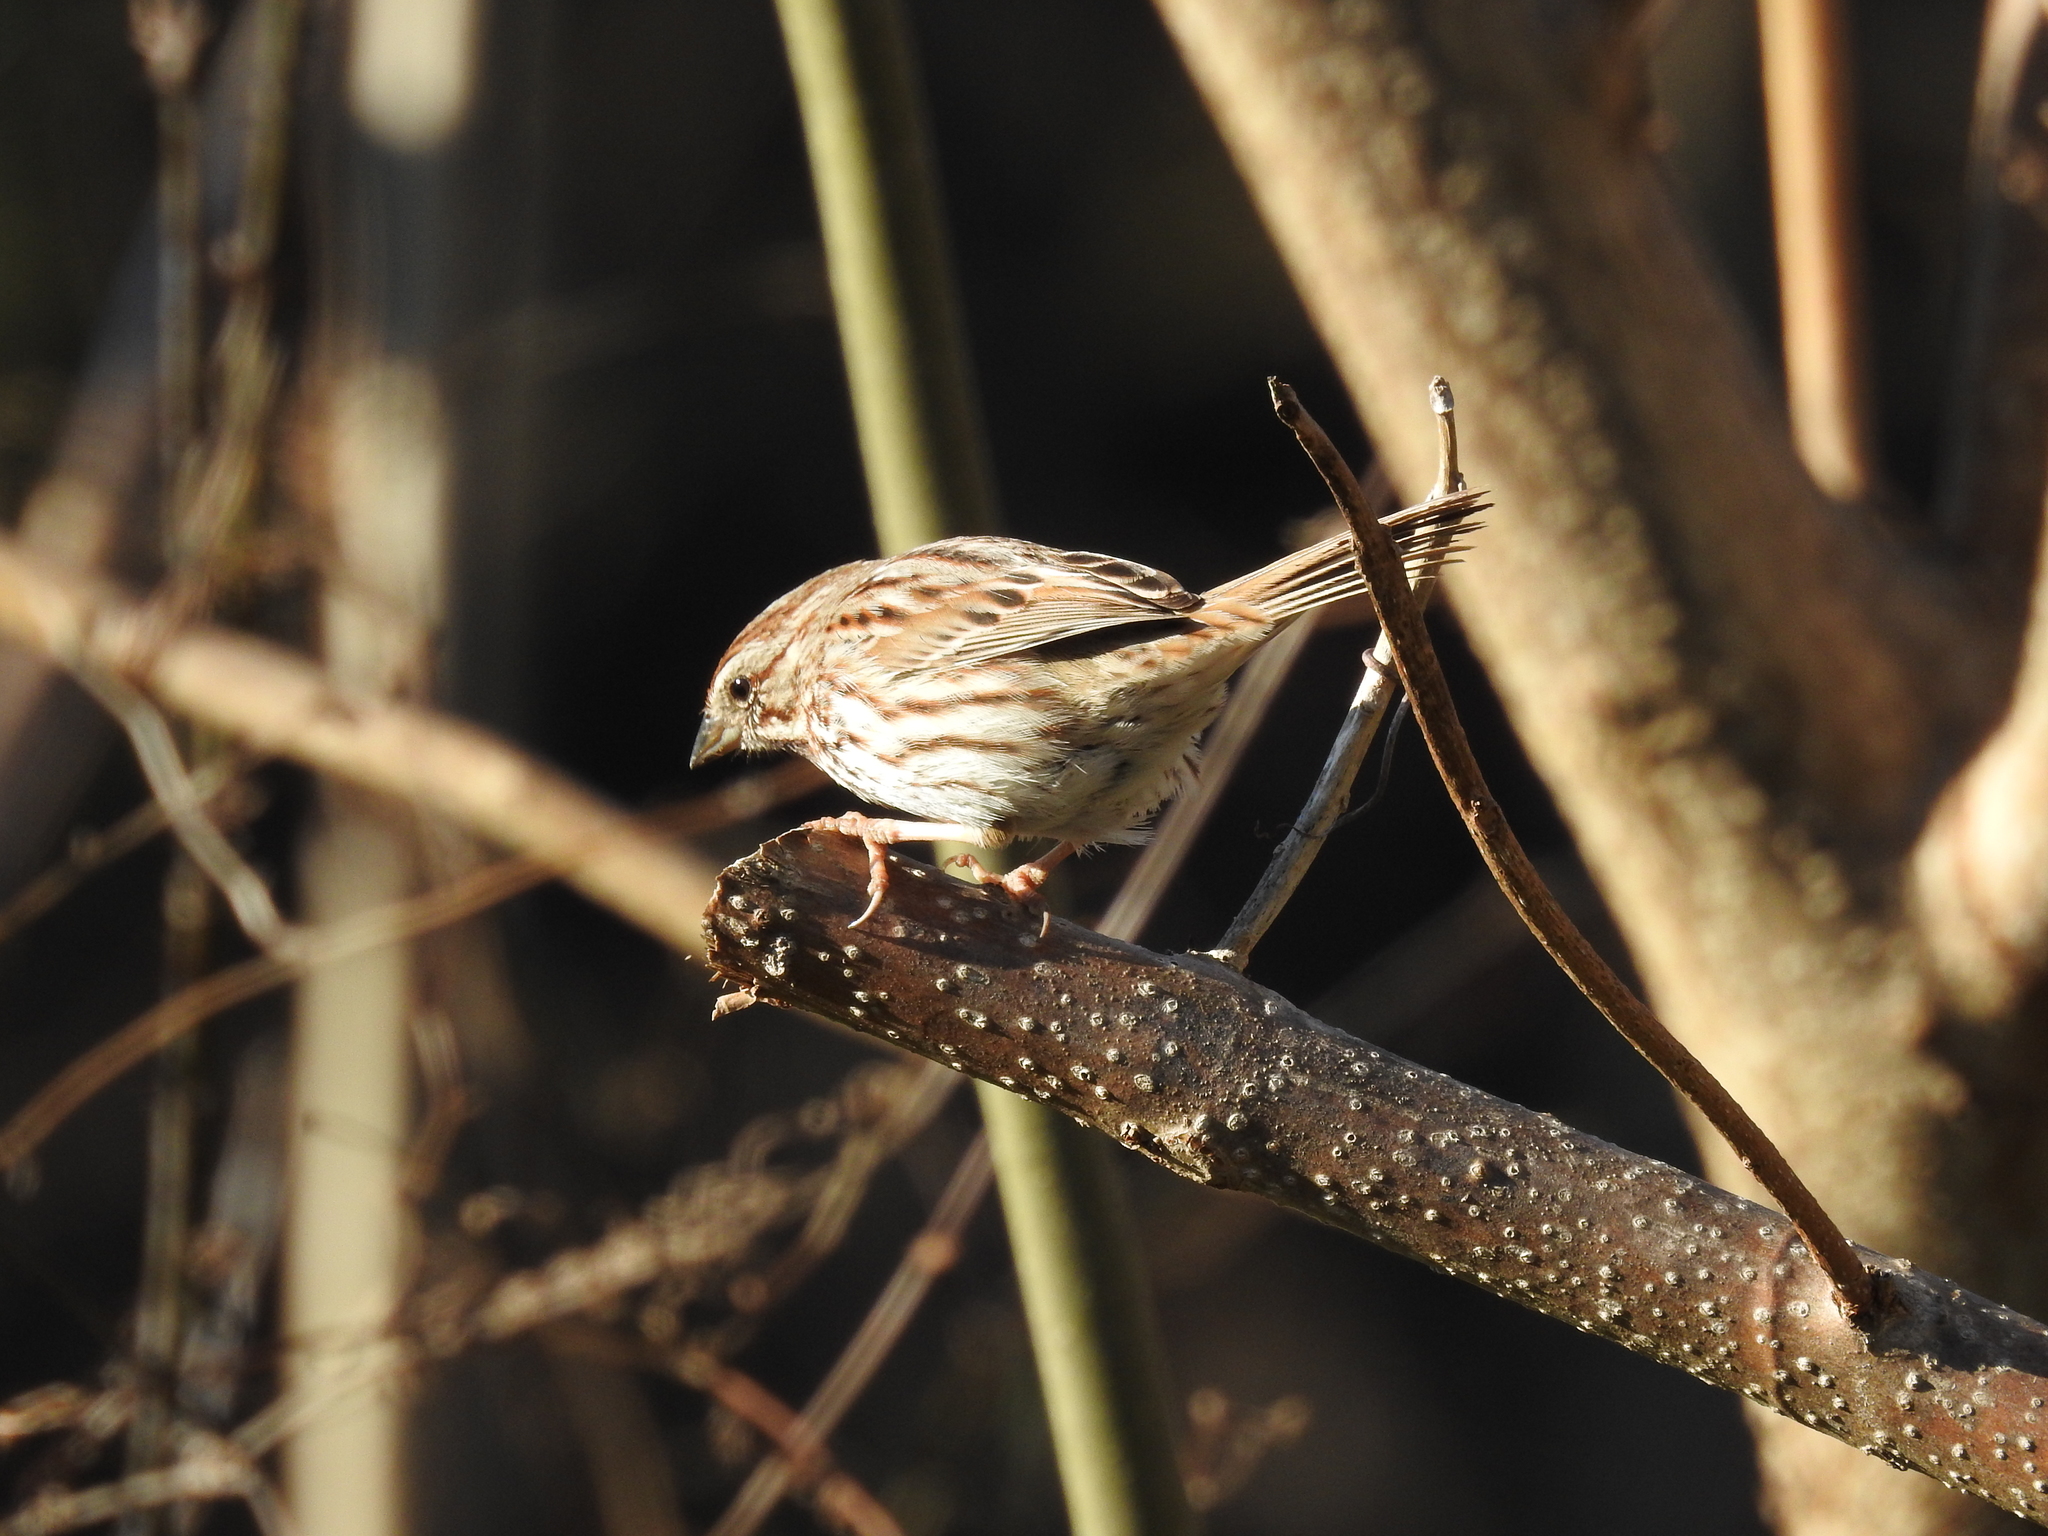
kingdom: Animalia
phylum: Chordata
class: Aves
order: Passeriformes
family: Passerellidae
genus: Melospiza
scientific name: Melospiza melodia
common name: Song sparrow
